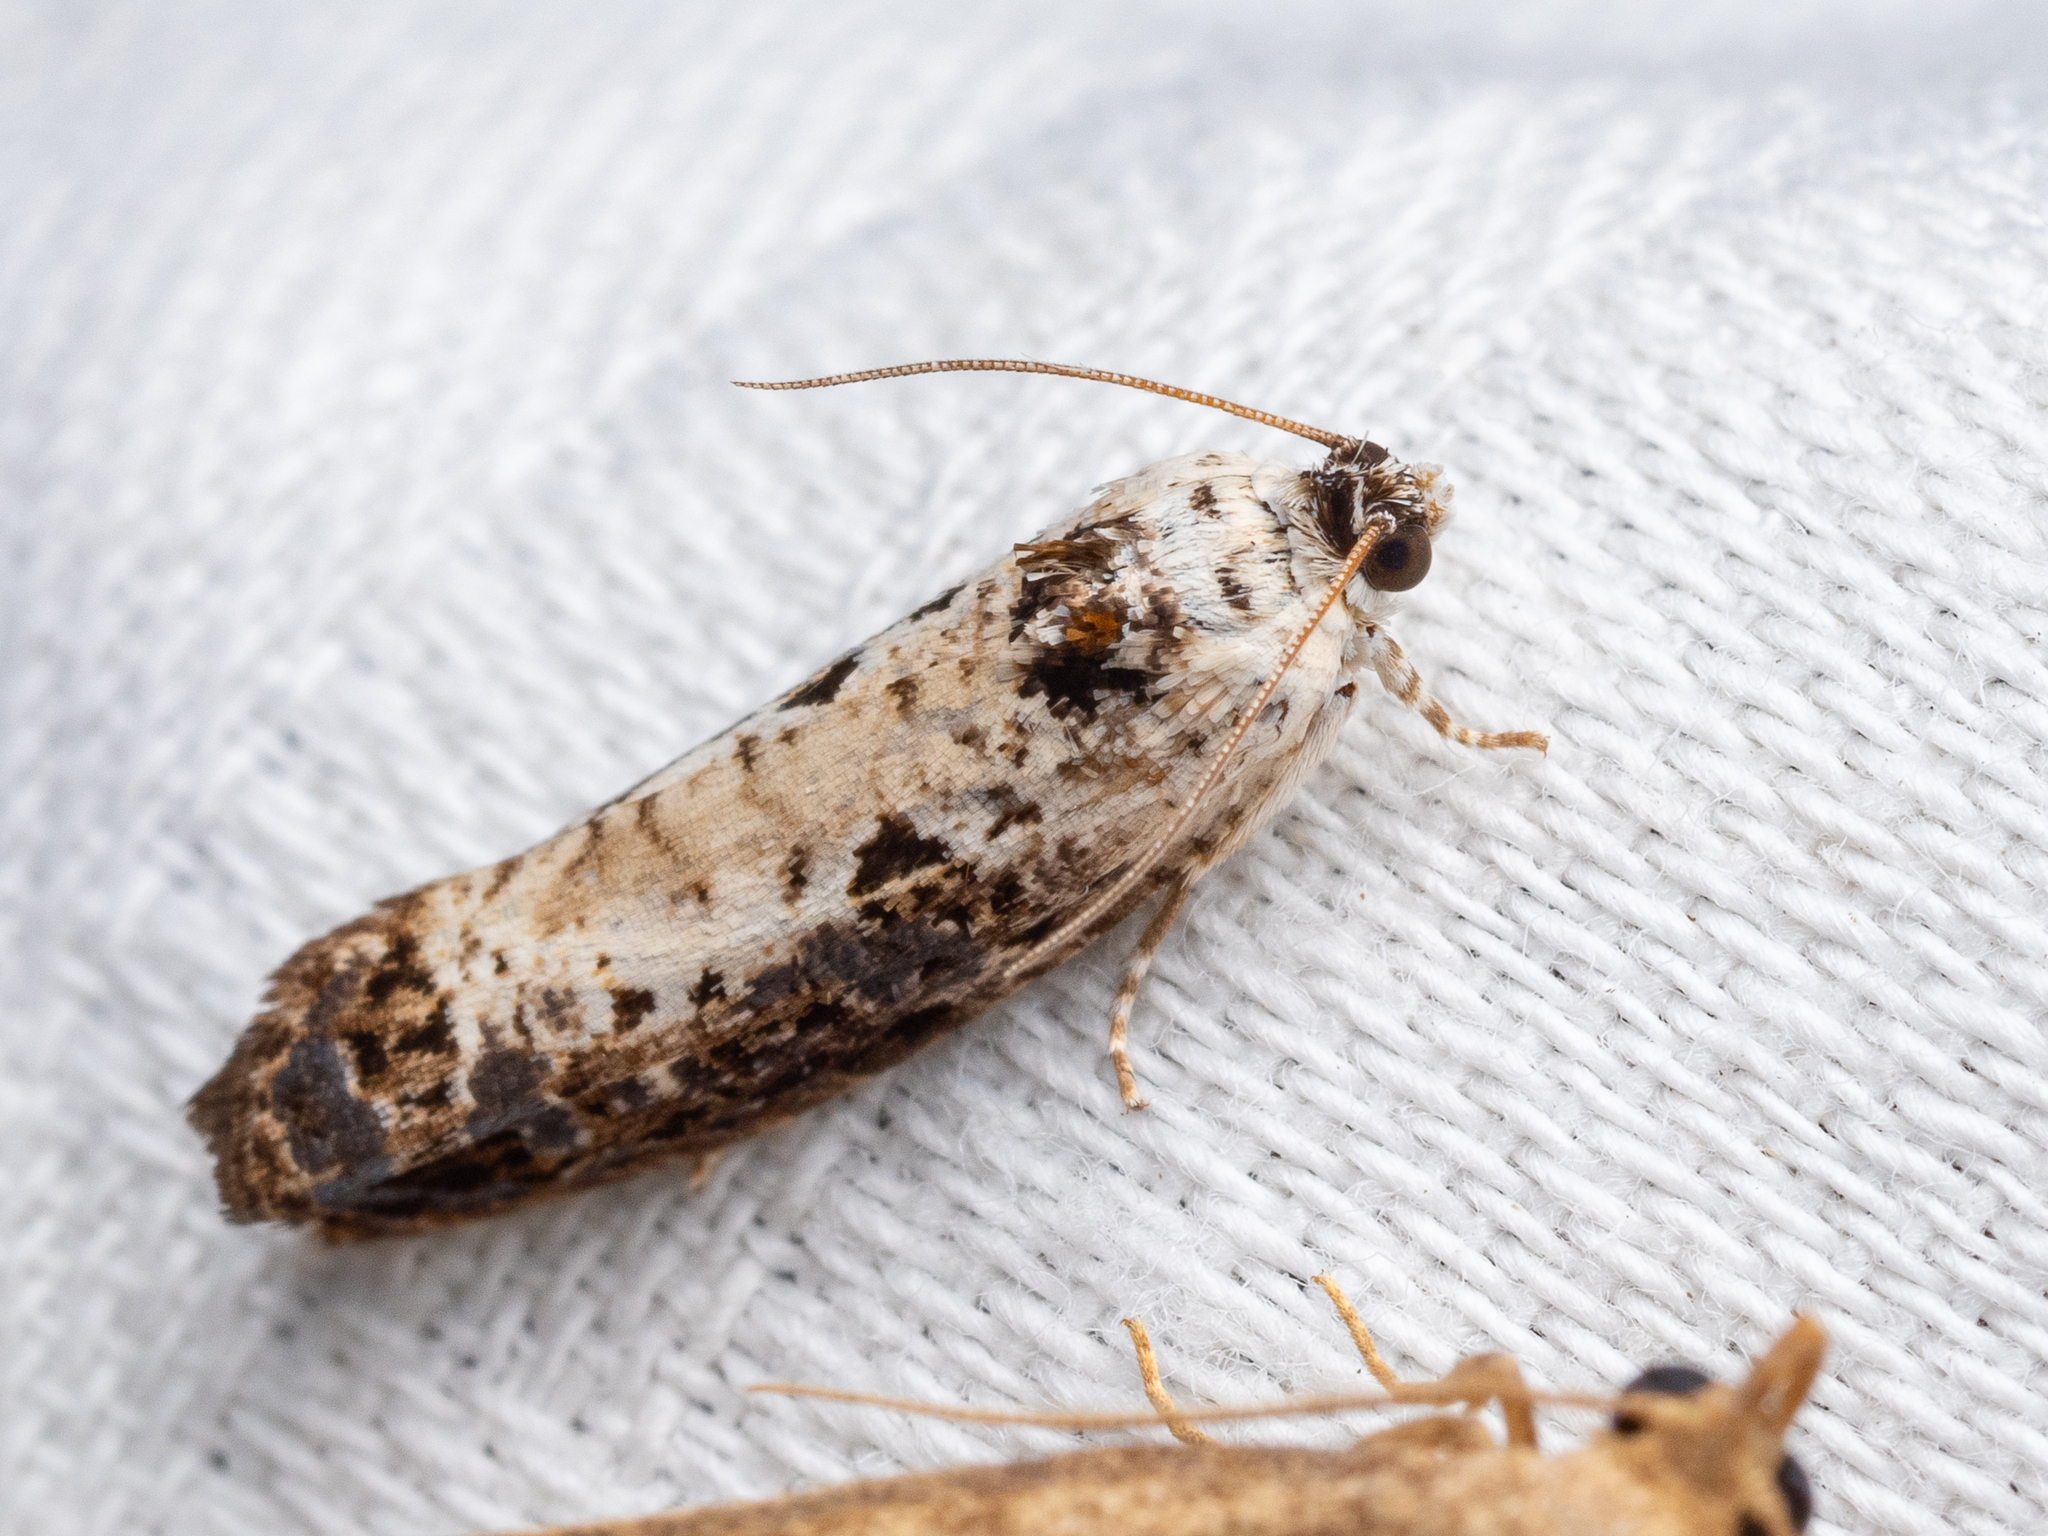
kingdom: Animalia
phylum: Arthropoda
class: Insecta
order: Lepidoptera
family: Tortricidae
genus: Hedya
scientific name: Hedya salicella
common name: Large tortricid moth
